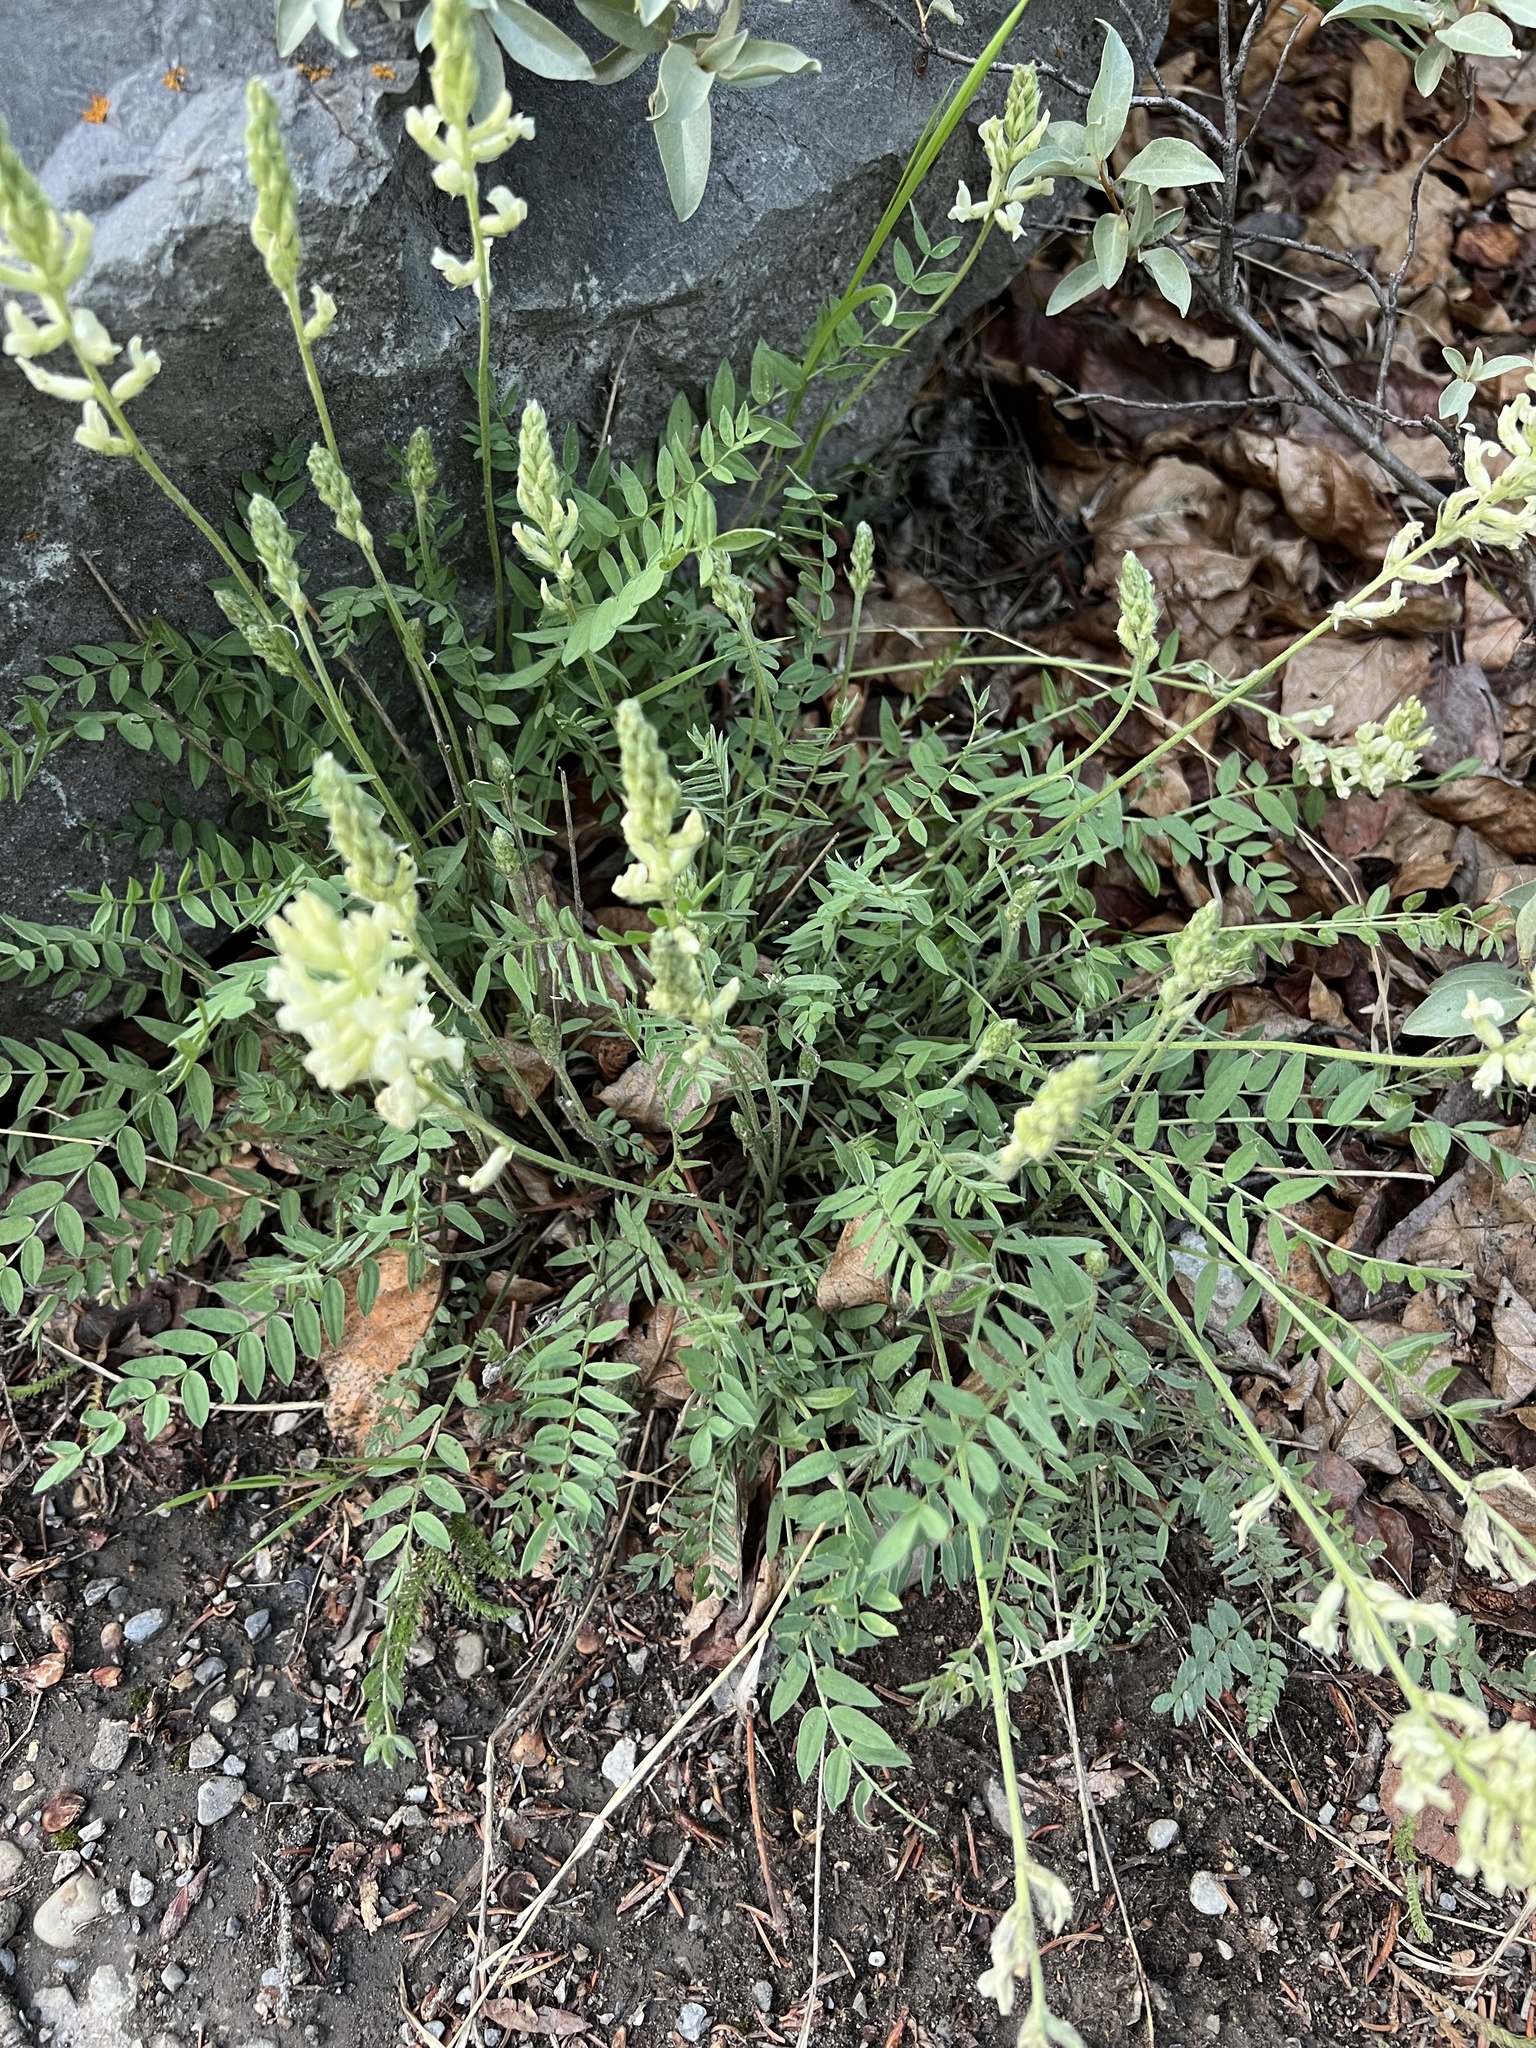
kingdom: Plantae
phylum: Tracheophyta
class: Magnoliopsida
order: Fabales
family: Fabaceae
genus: Oxytropis
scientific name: Oxytropis campestris
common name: Field locoweed
